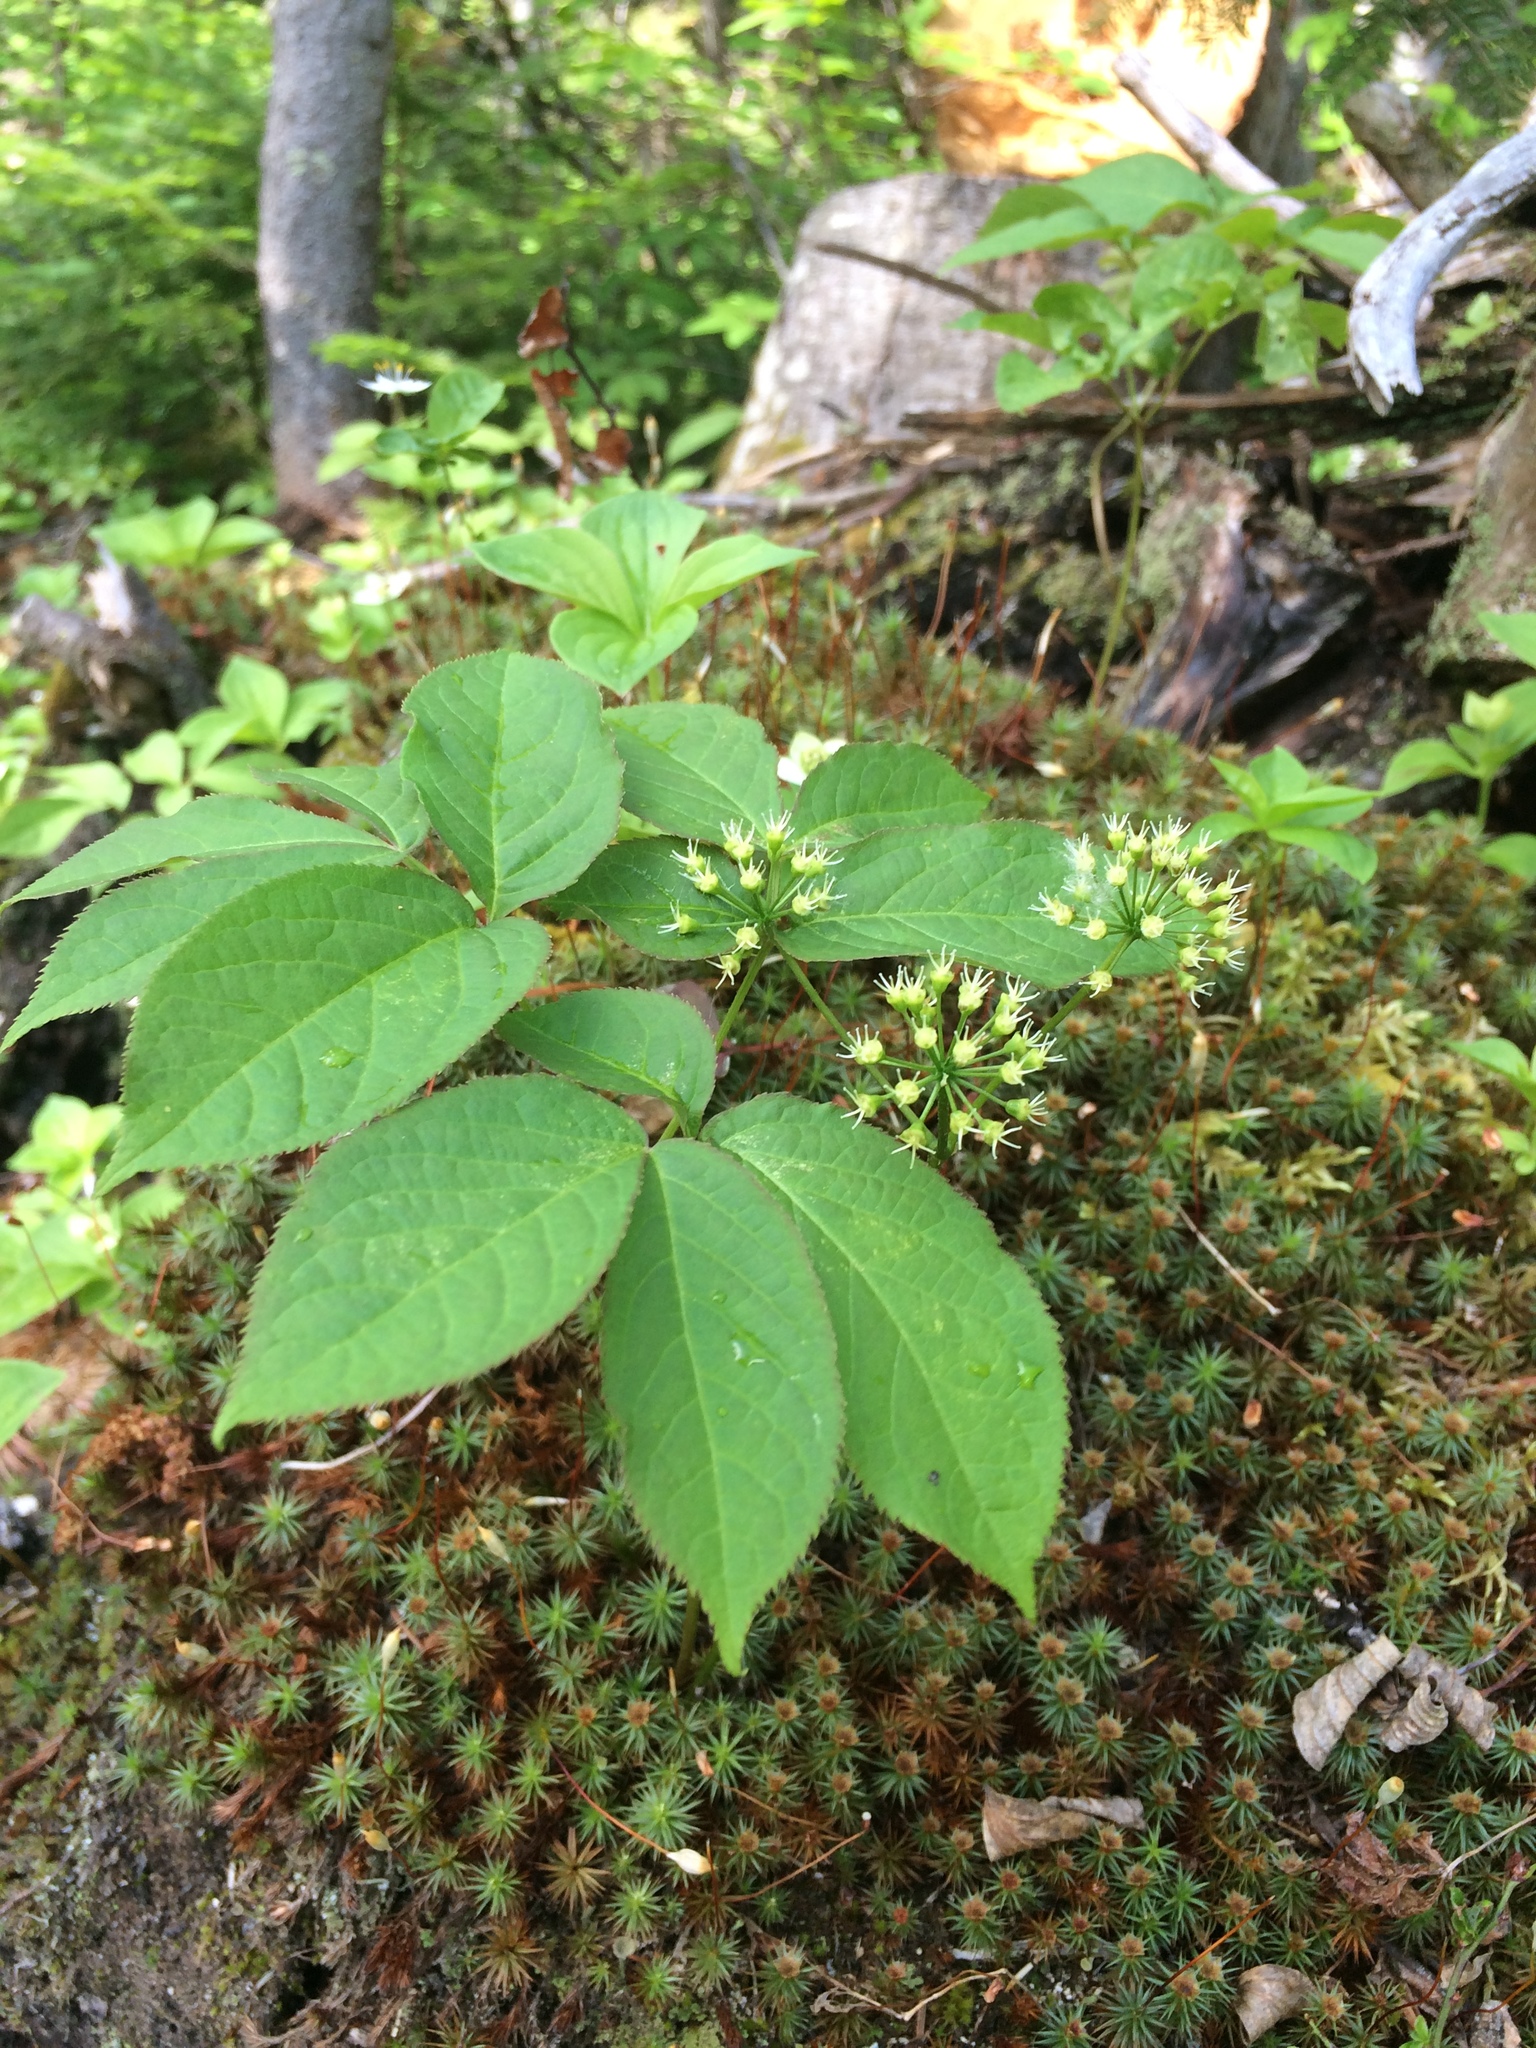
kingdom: Plantae
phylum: Tracheophyta
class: Magnoliopsida
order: Apiales
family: Araliaceae
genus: Aralia
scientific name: Aralia nudicaulis
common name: Wild sarsaparilla
